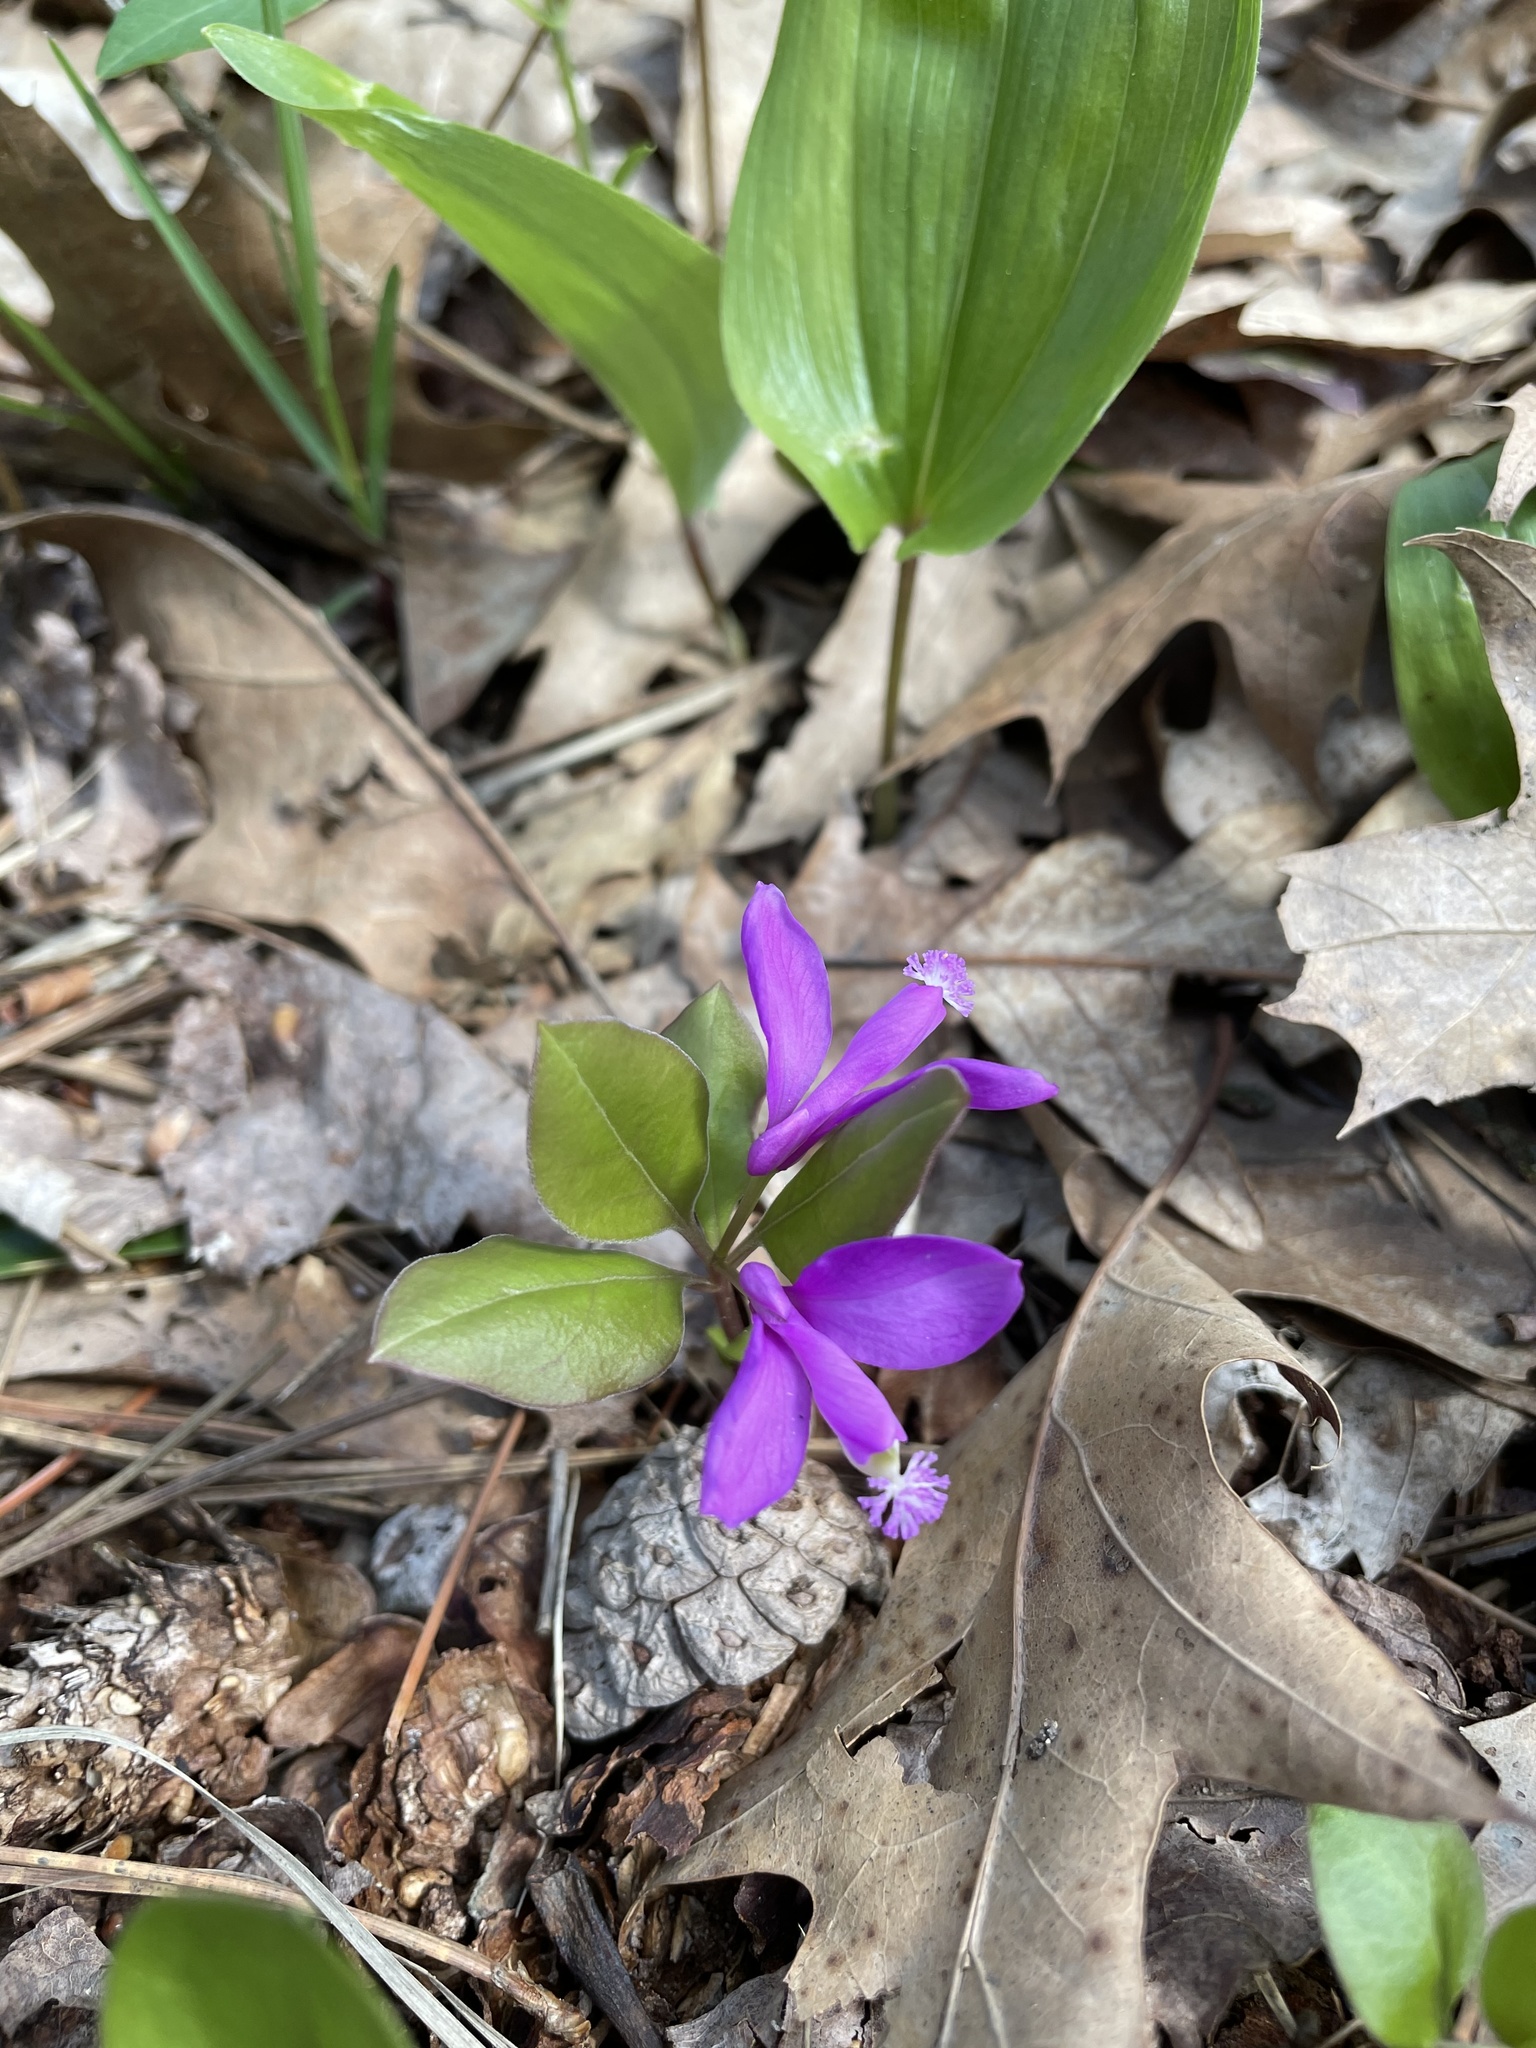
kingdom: Plantae
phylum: Tracheophyta
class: Magnoliopsida
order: Fabales
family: Polygalaceae
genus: Polygaloides
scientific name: Polygaloides paucifolia
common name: Bird-on-the-wing
